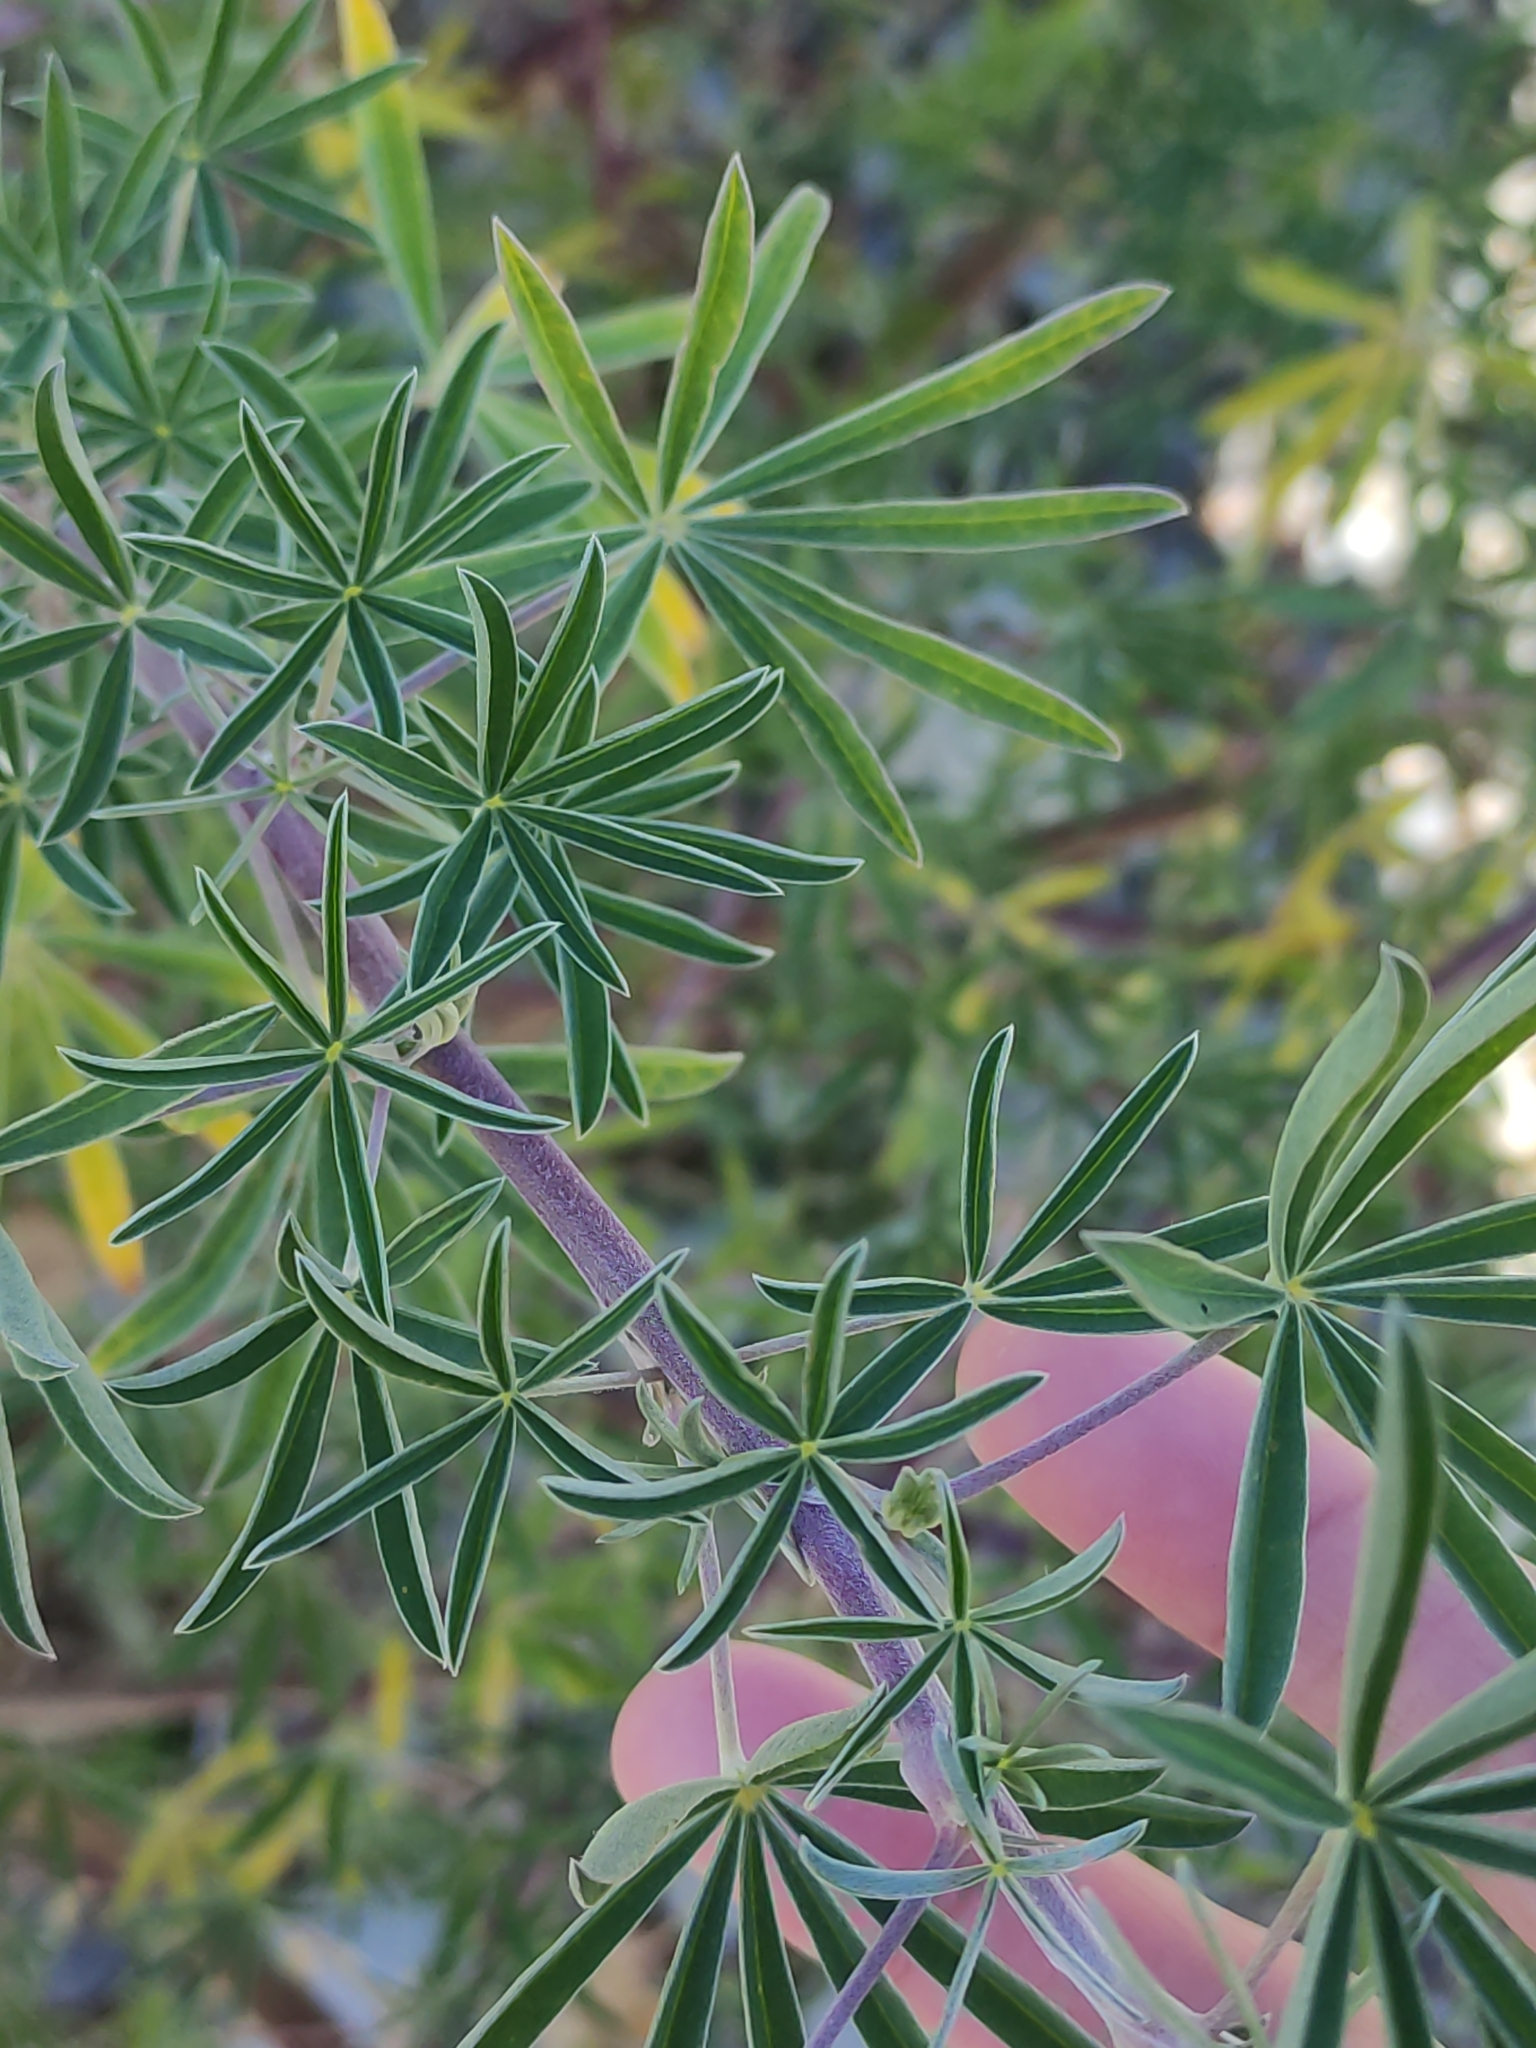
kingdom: Plantae
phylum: Tracheophyta
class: Magnoliopsida
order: Fabales
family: Fabaceae
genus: Lupinus
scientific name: Lupinus arboreus
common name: Yellow bush lupine
